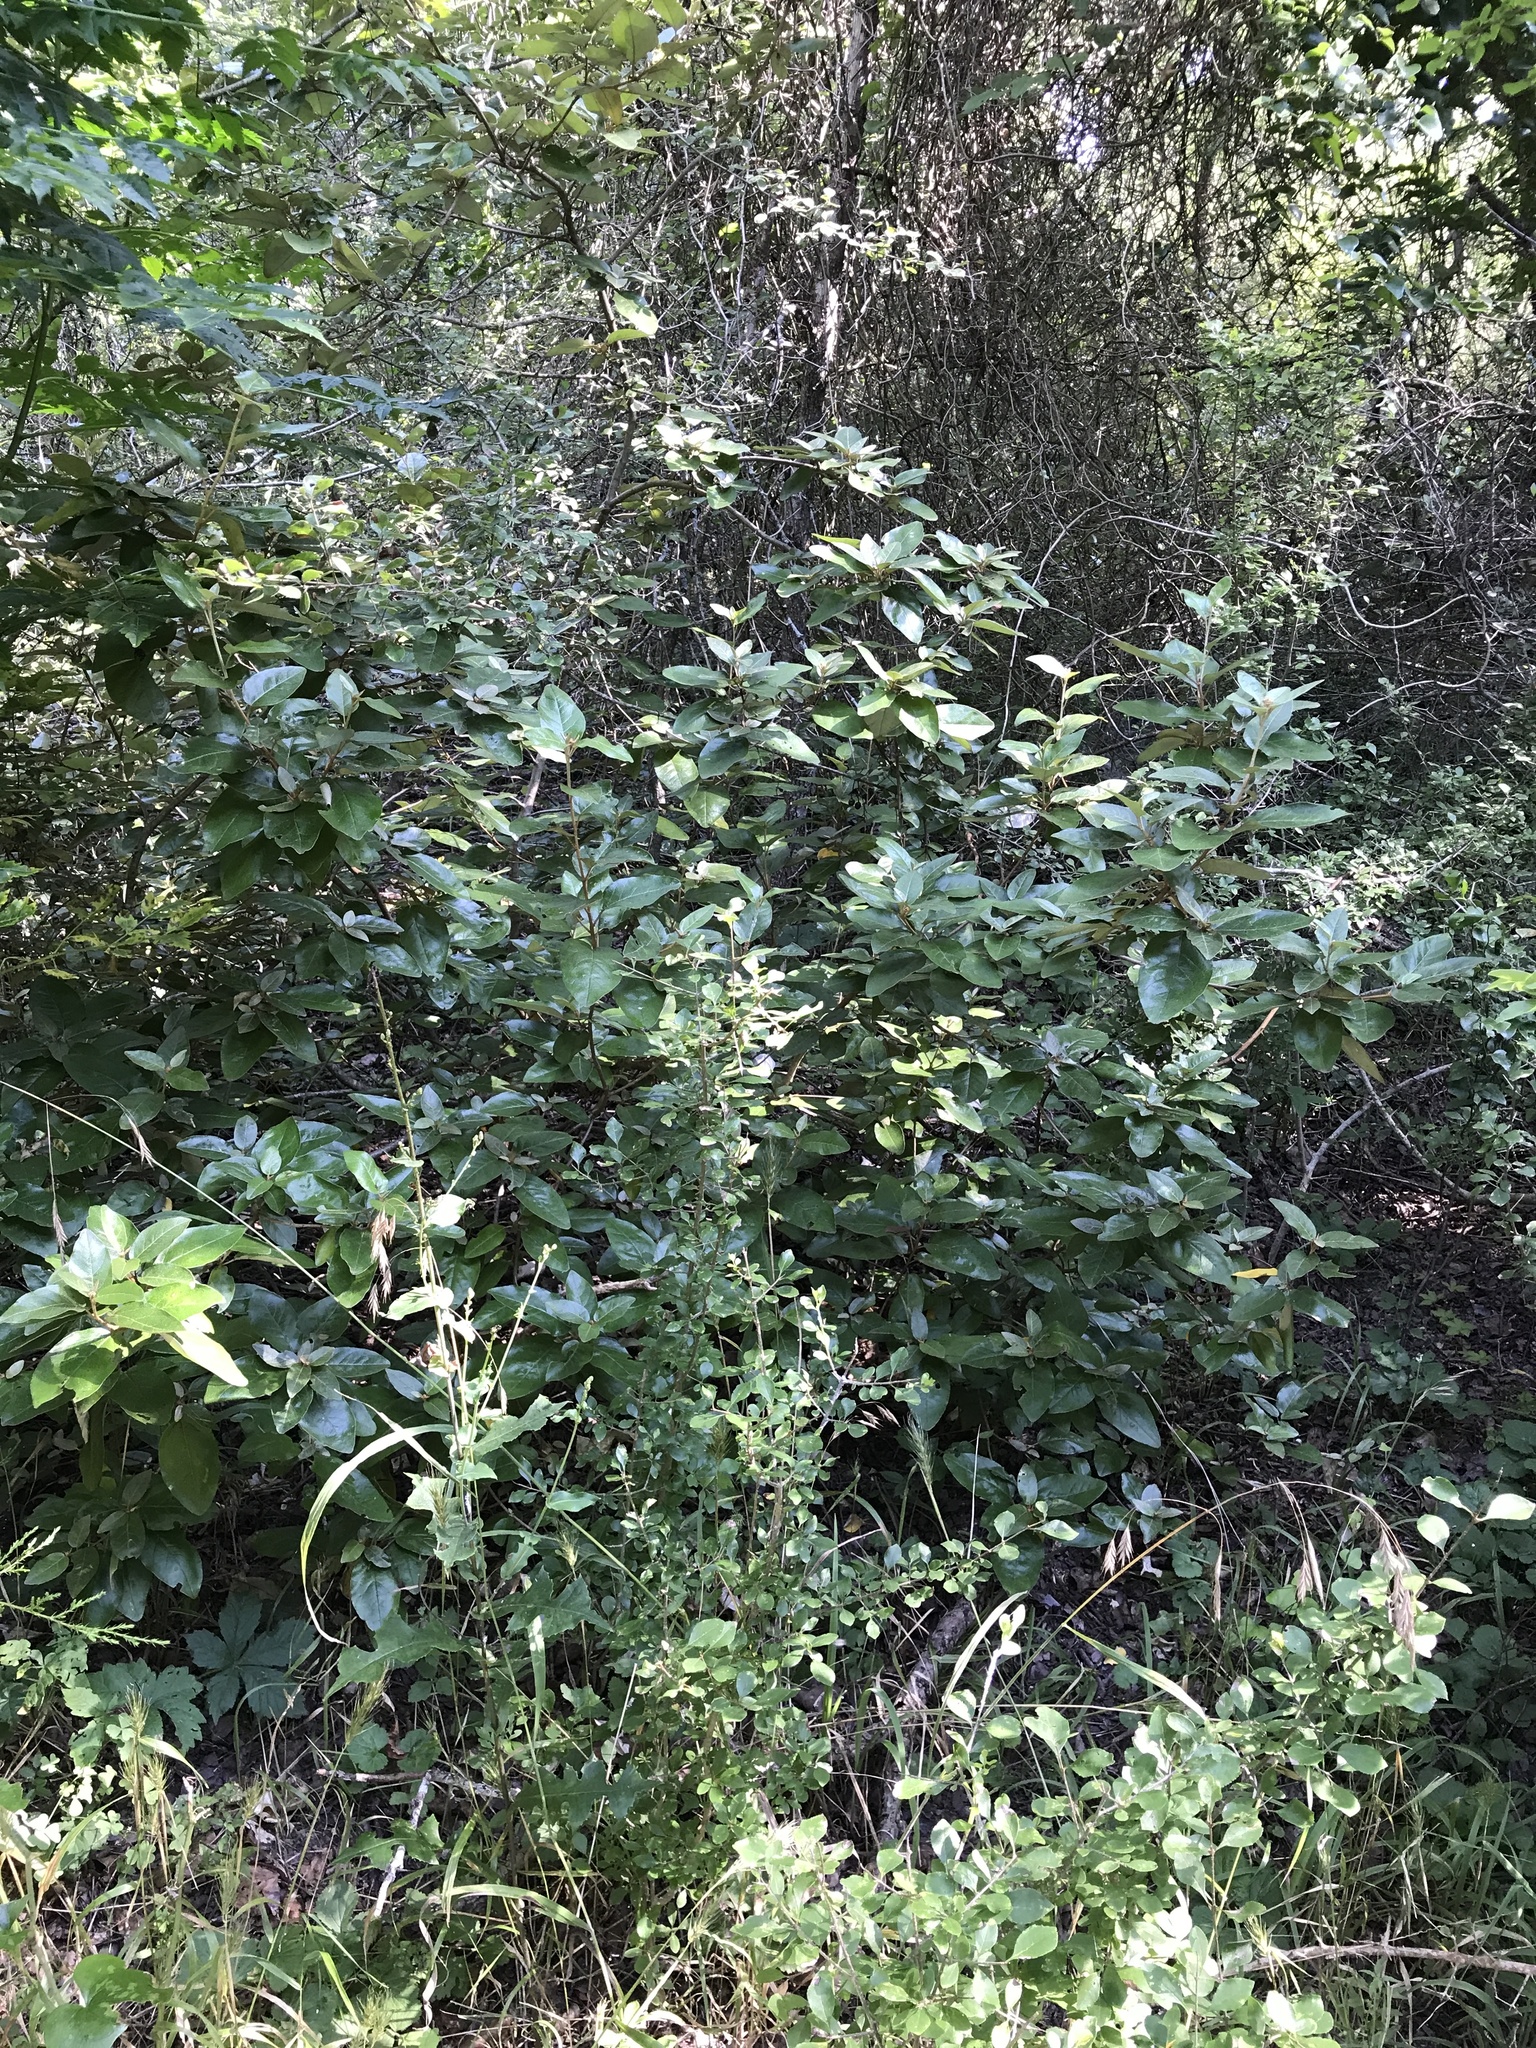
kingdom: Plantae
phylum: Tracheophyta
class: Magnoliopsida
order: Malpighiales
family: Euphorbiaceae
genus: Croton
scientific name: Croton alabamensis
